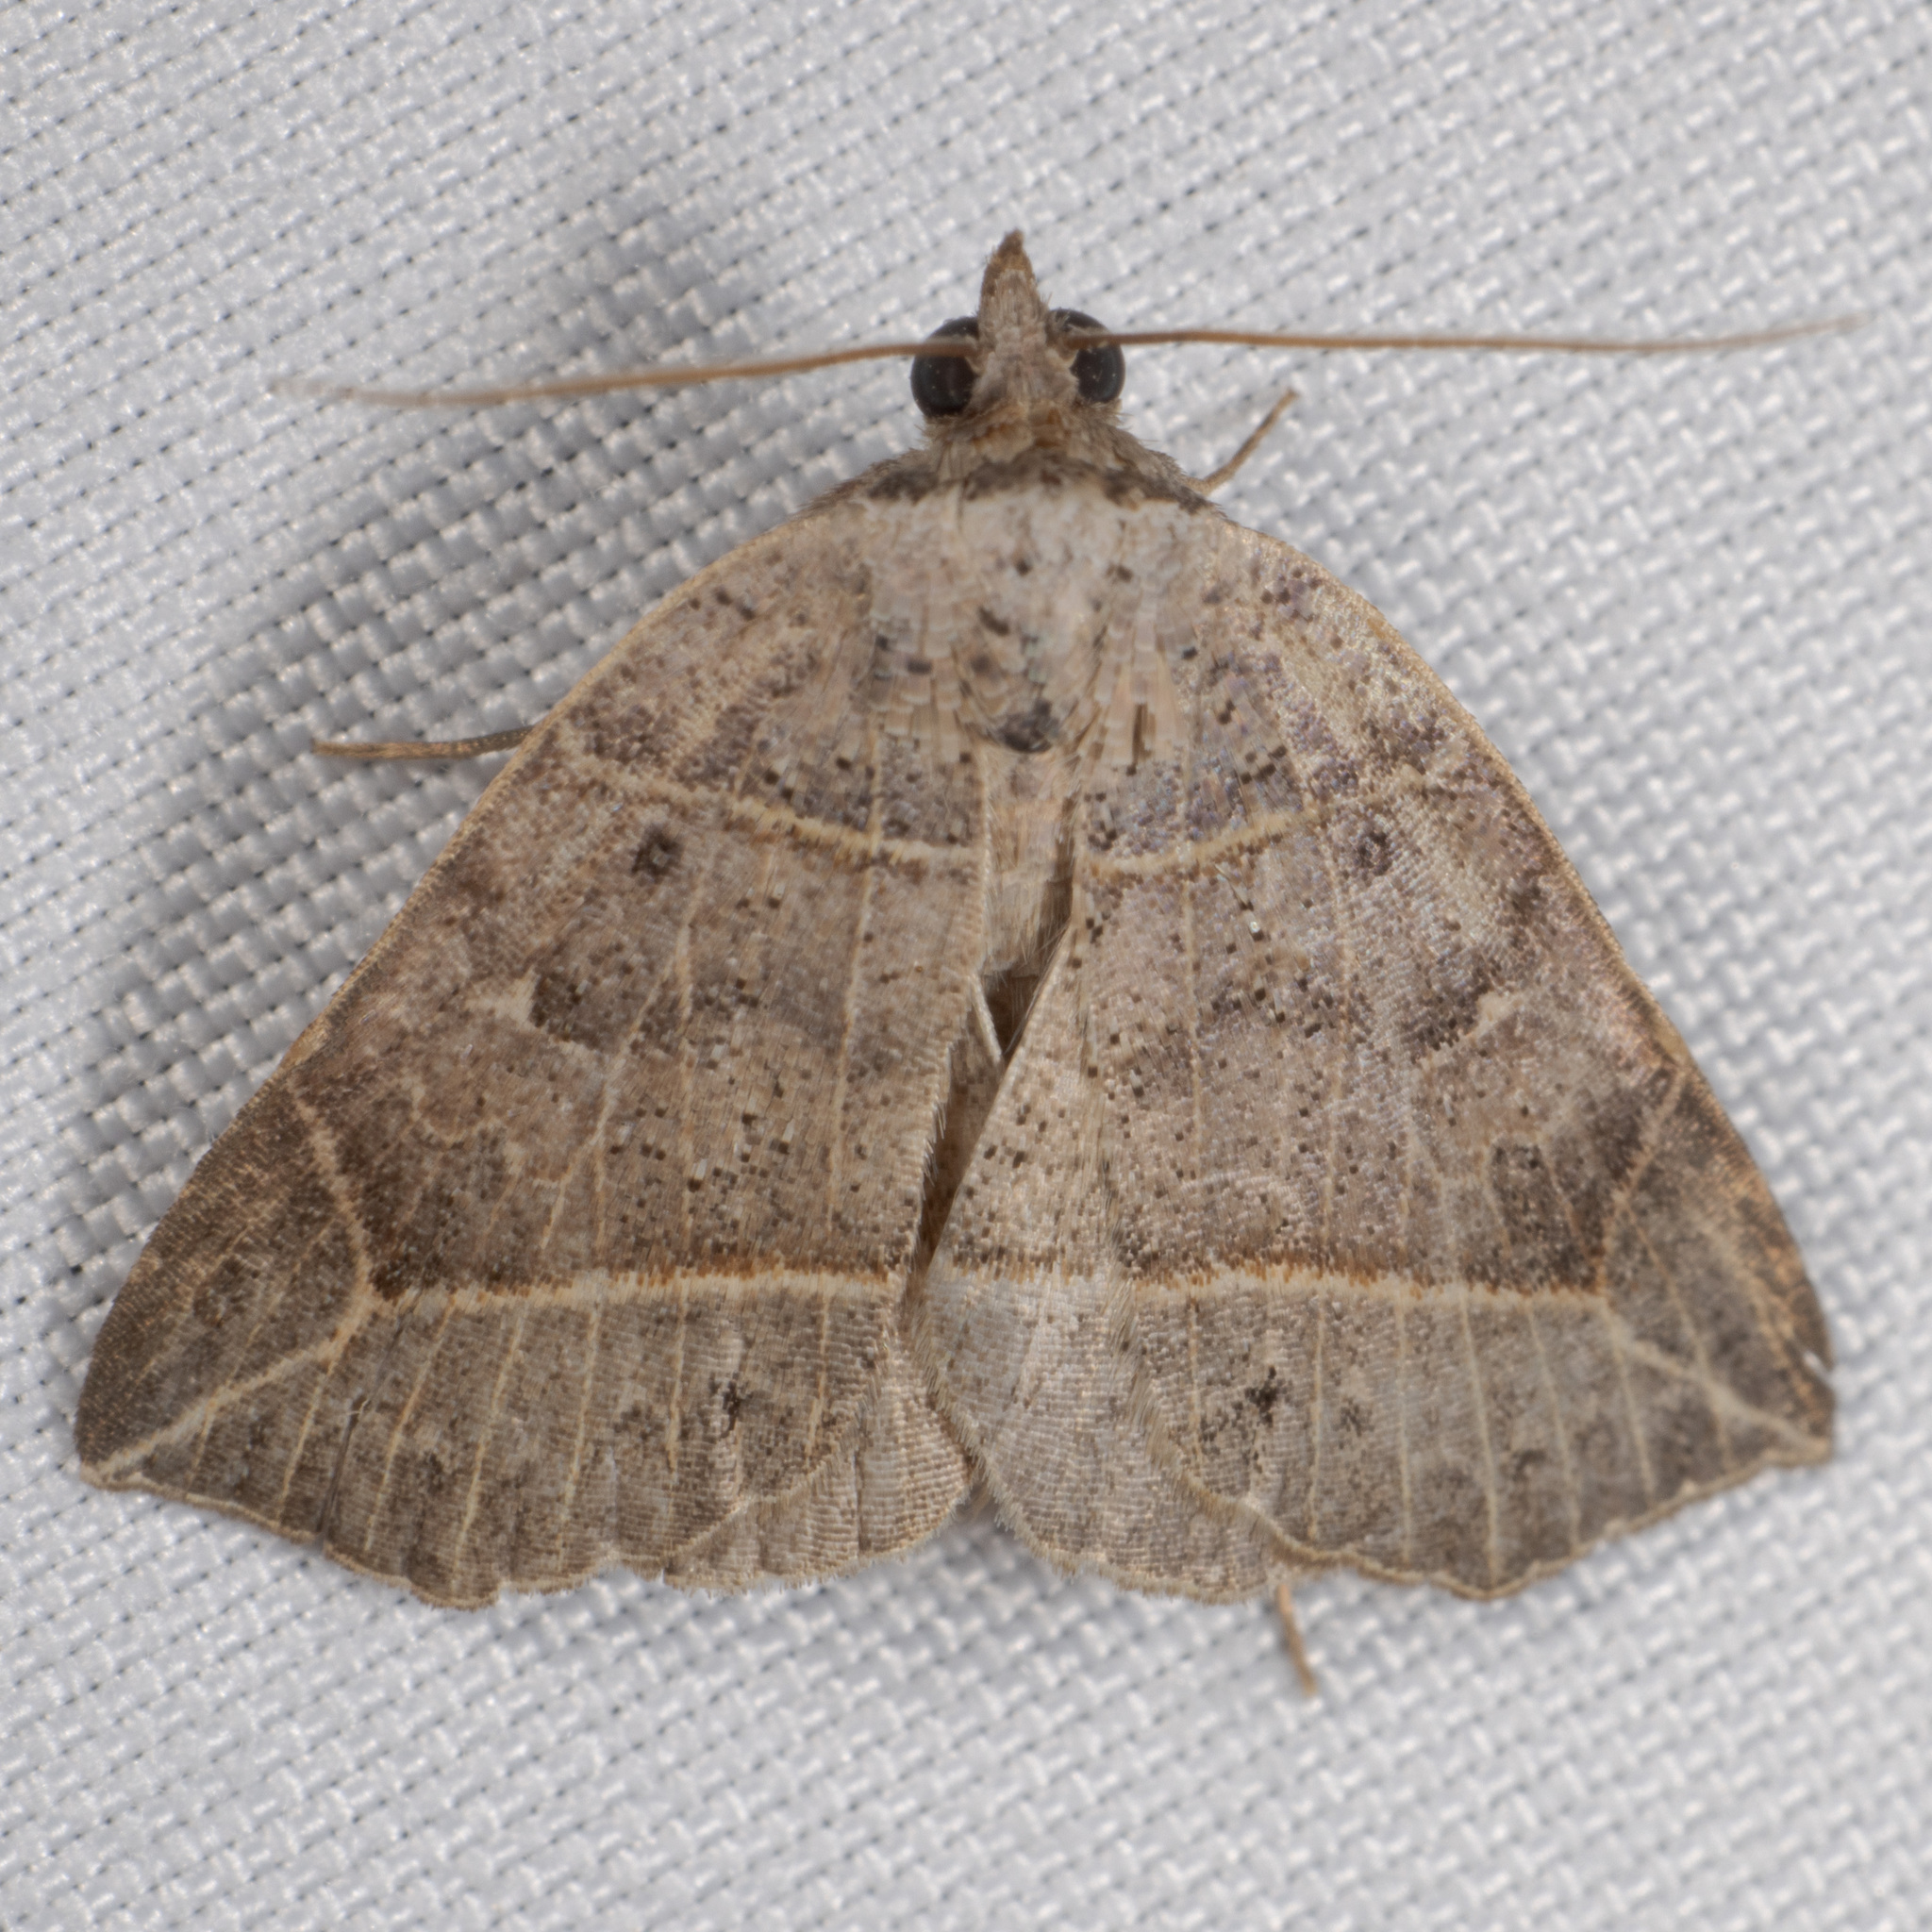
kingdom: Animalia
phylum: Arthropoda
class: Insecta
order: Lepidoptera
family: Erebidae
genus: Isogona
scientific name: Isogona tenuis
